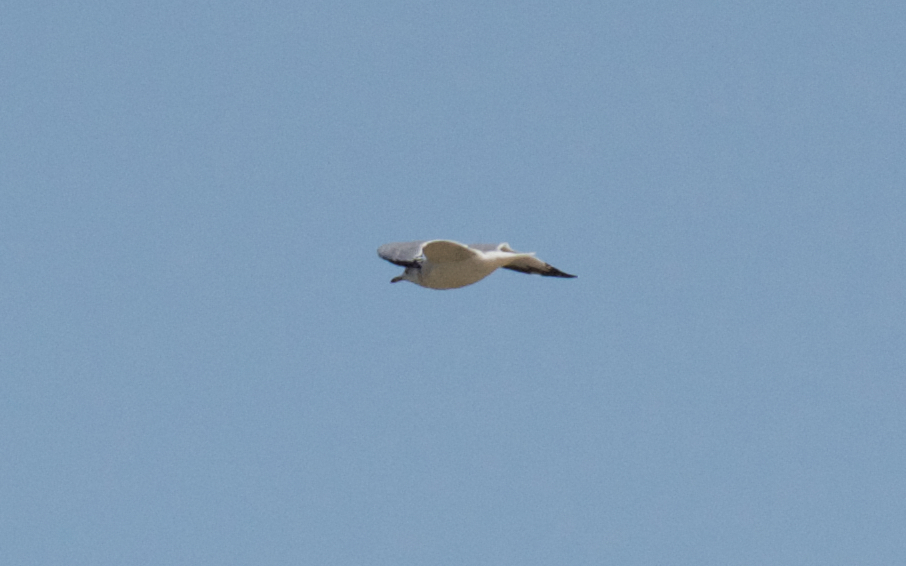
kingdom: Animalia
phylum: Chordata
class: Aves
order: Charadriiformes
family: Laridae
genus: Larus
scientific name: Larus californicus
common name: California gull
